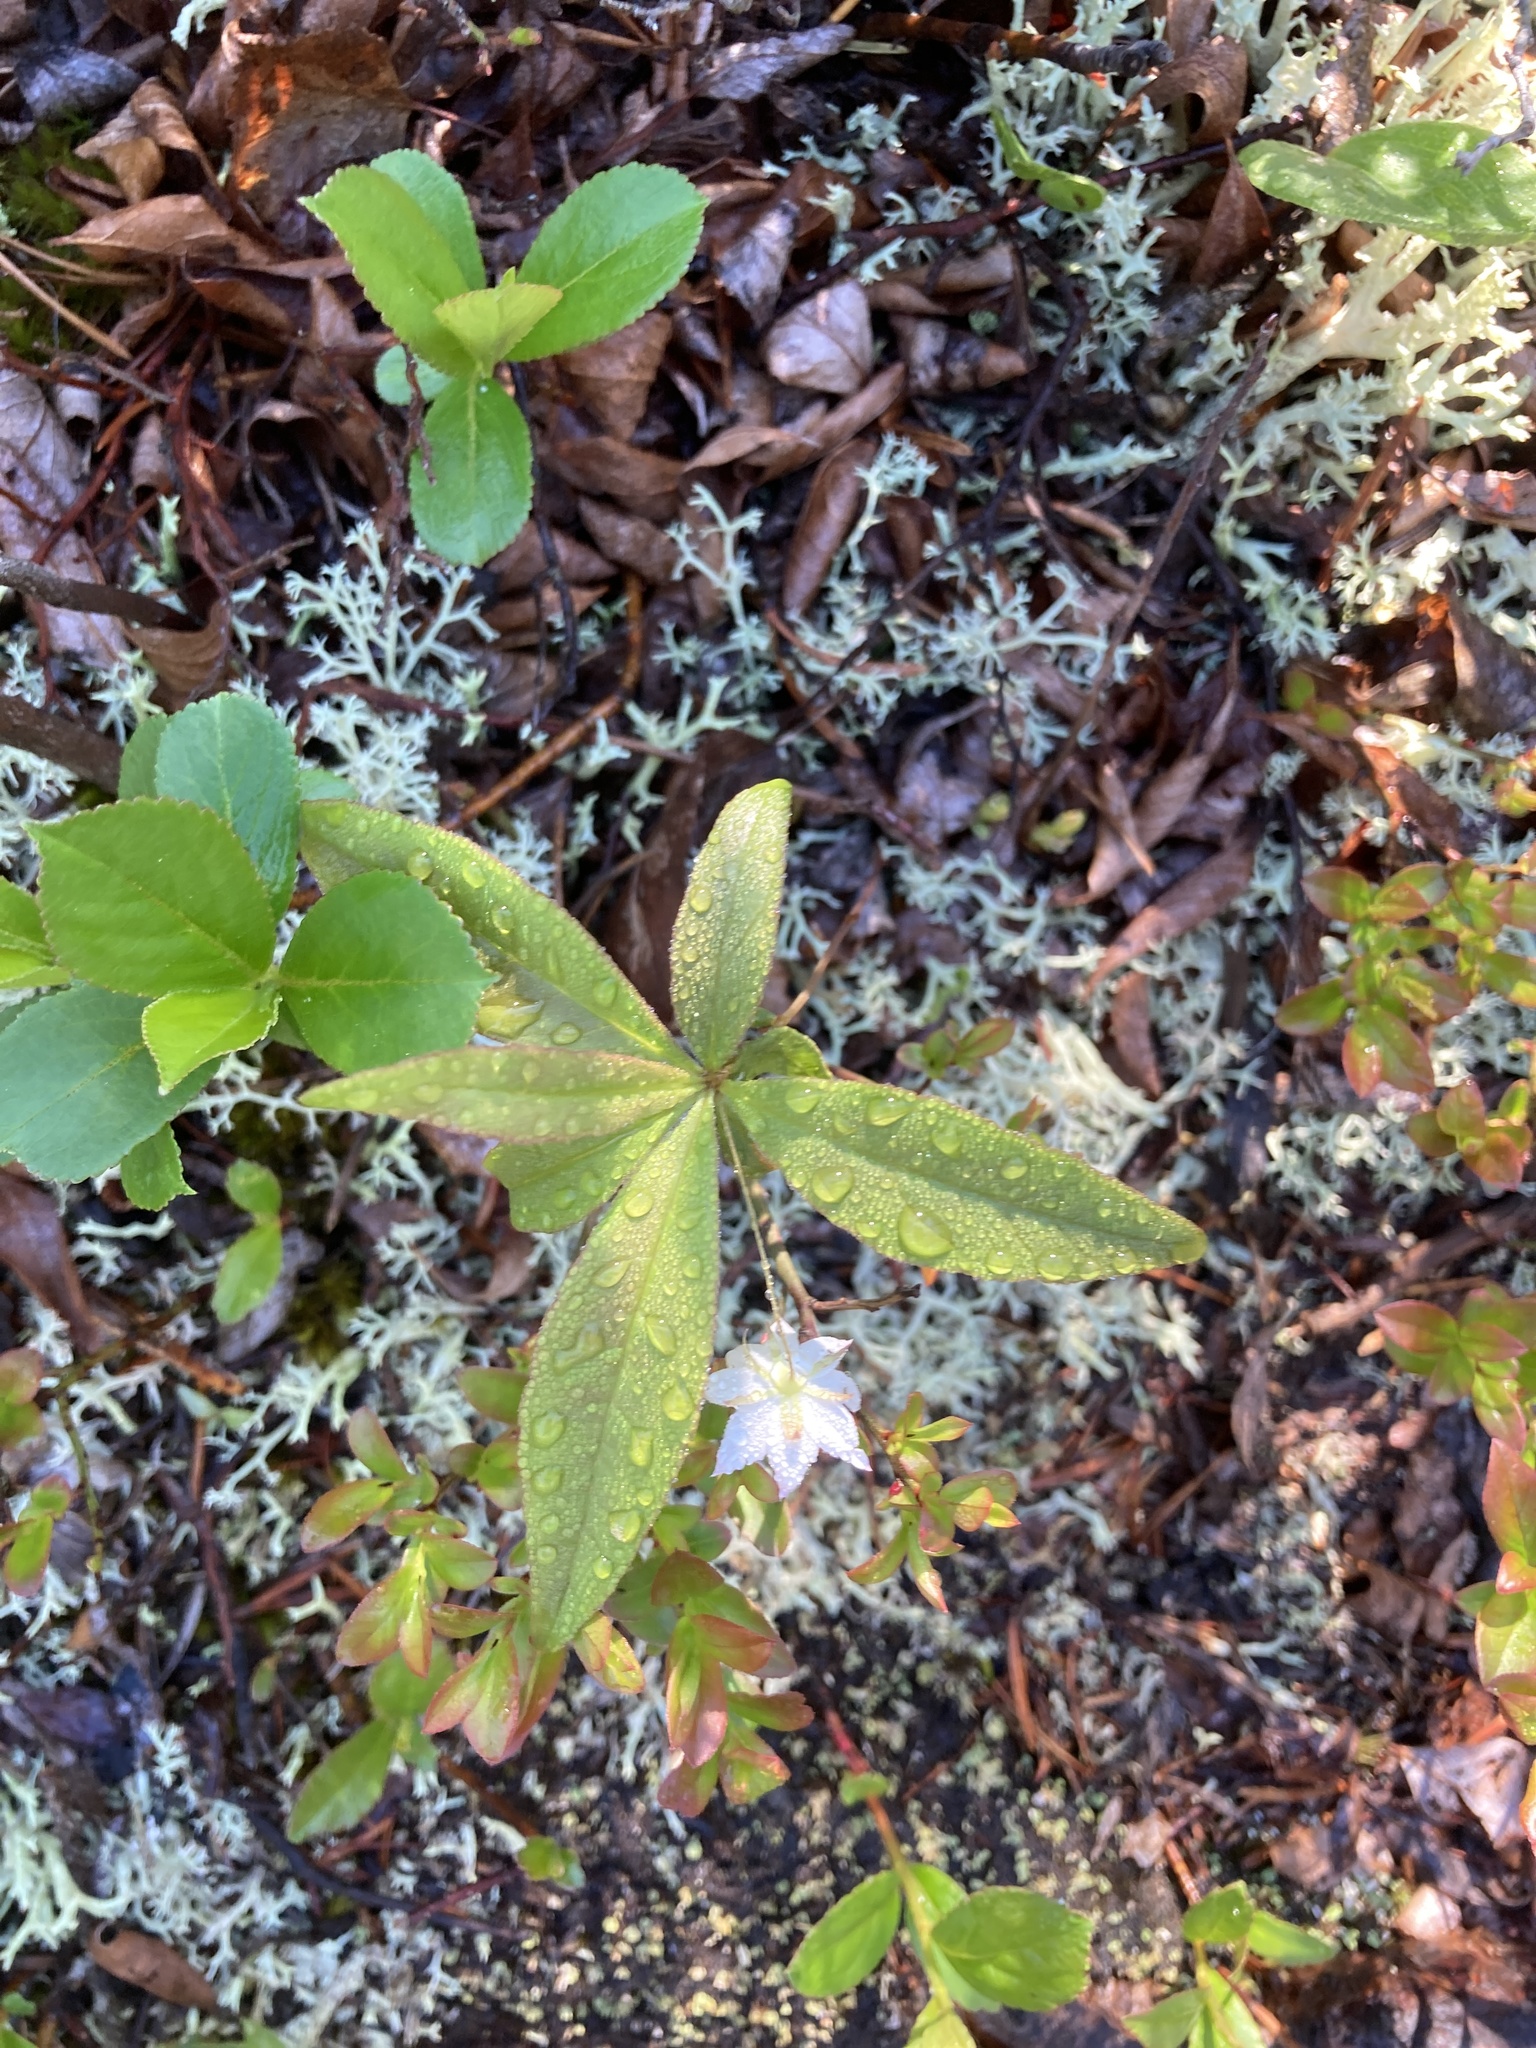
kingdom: Plantae
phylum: Tracheophyta
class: Magnoliopsida
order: Ericales
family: Primulaceae
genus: Lysimachia
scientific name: Lysimachia borealis
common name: American starflower
